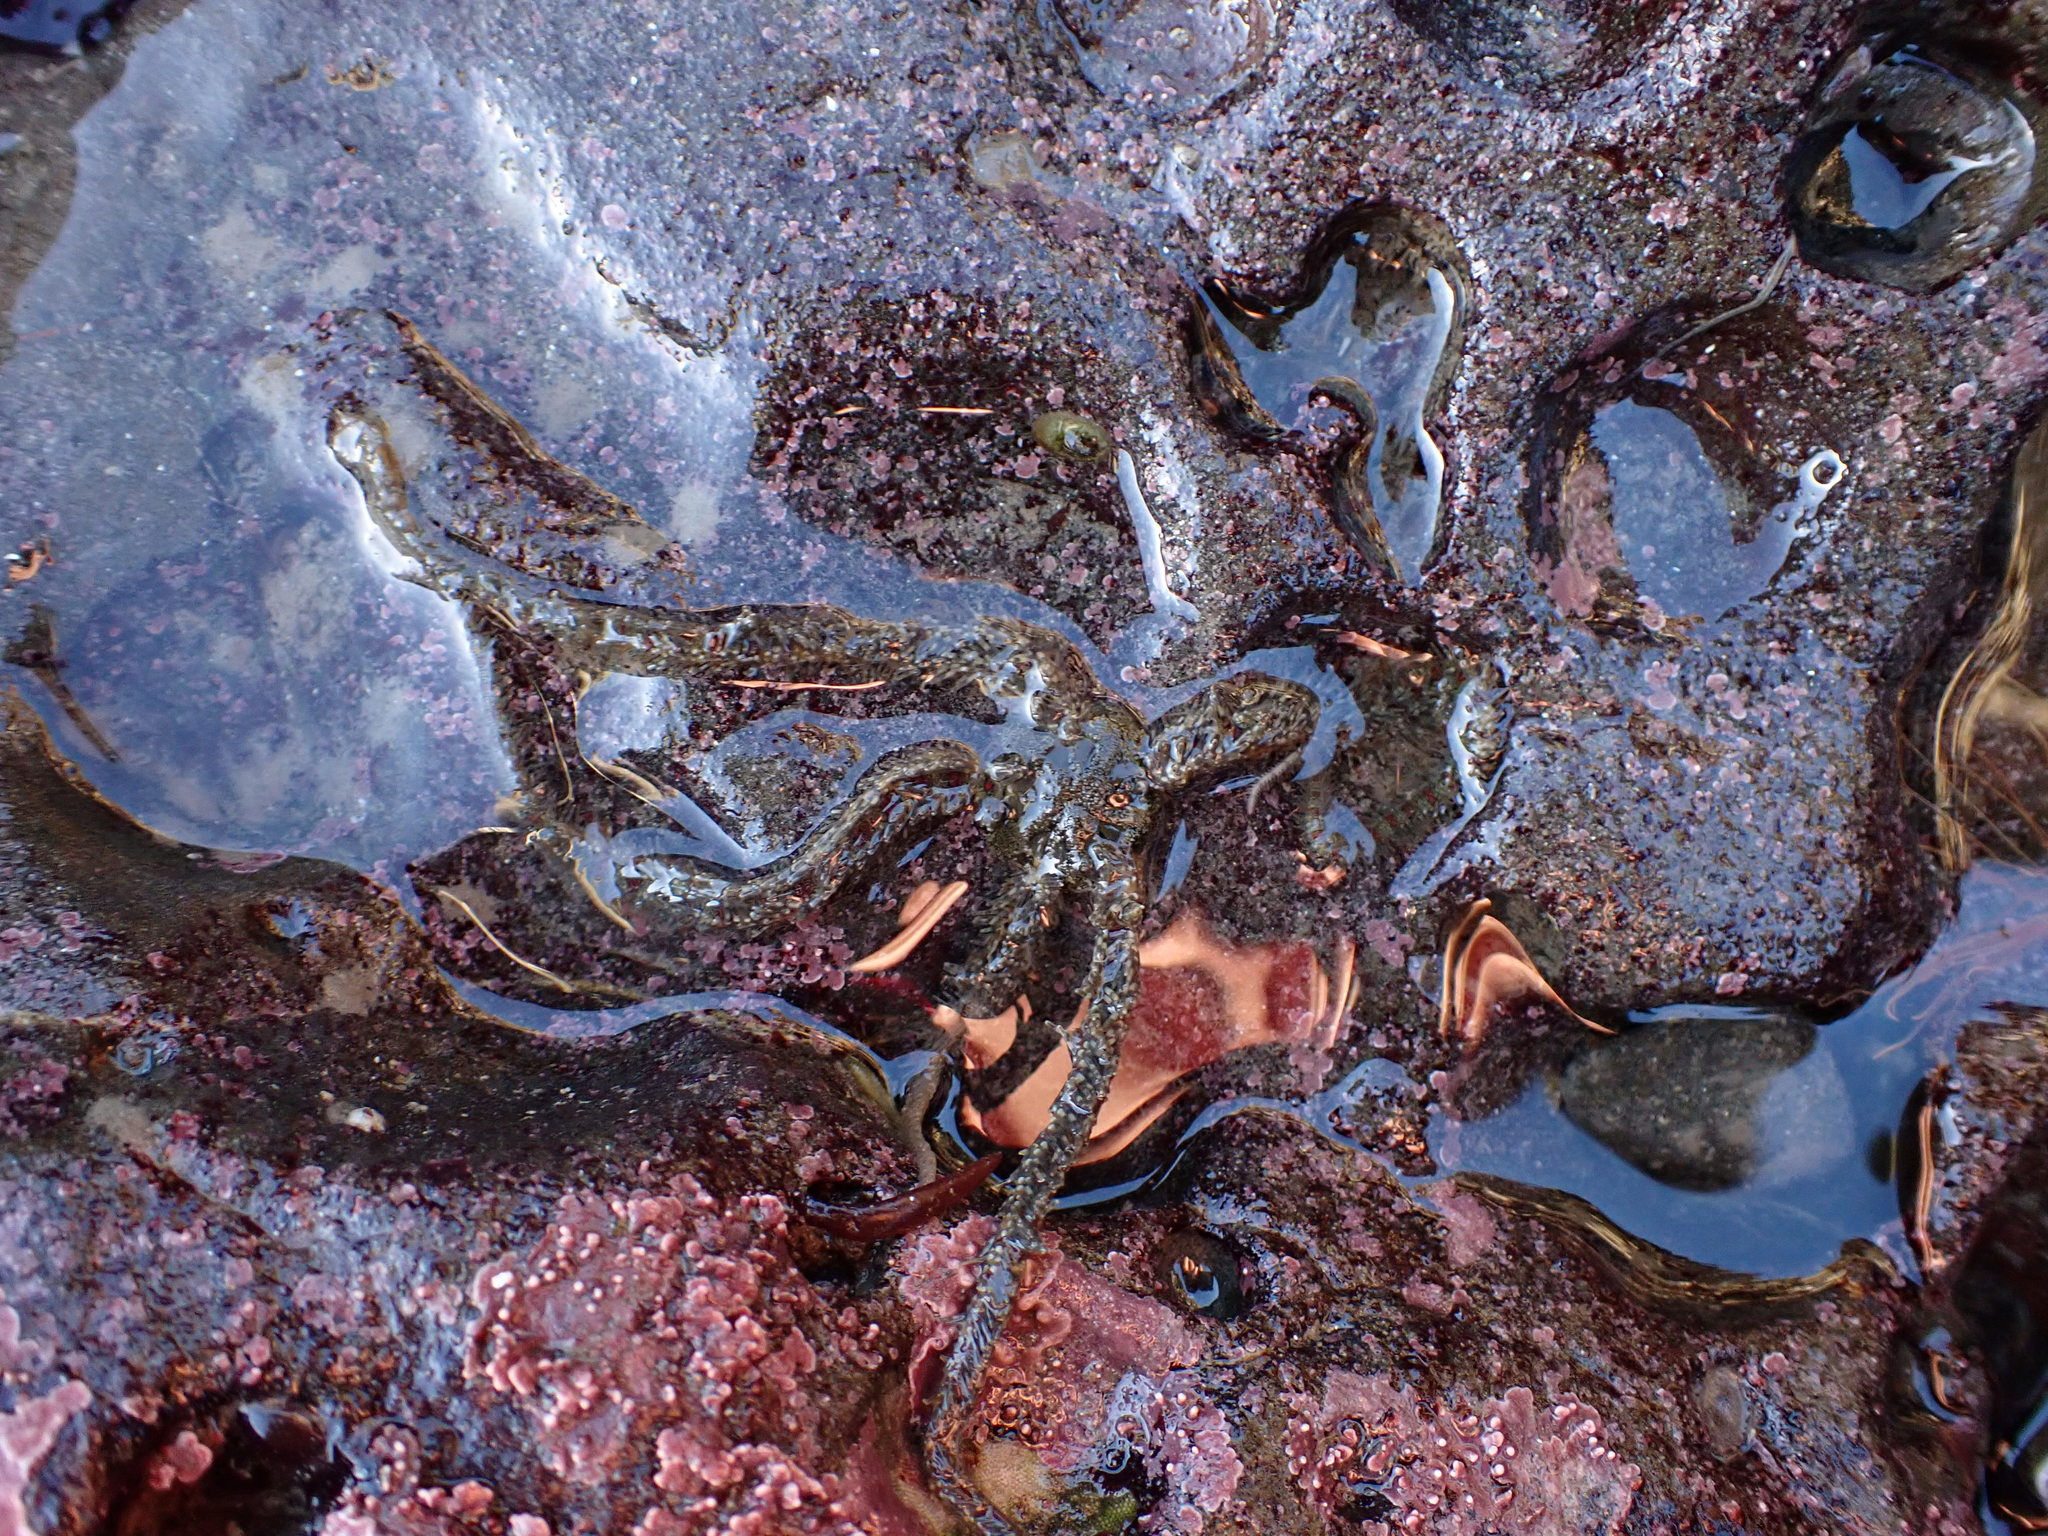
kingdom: Animalia
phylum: Echinodermata
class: Ophiuroidea
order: Amphilepidida
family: Ophiotrichidae
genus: Ophiothrix
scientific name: Ophiothrix spiculata
